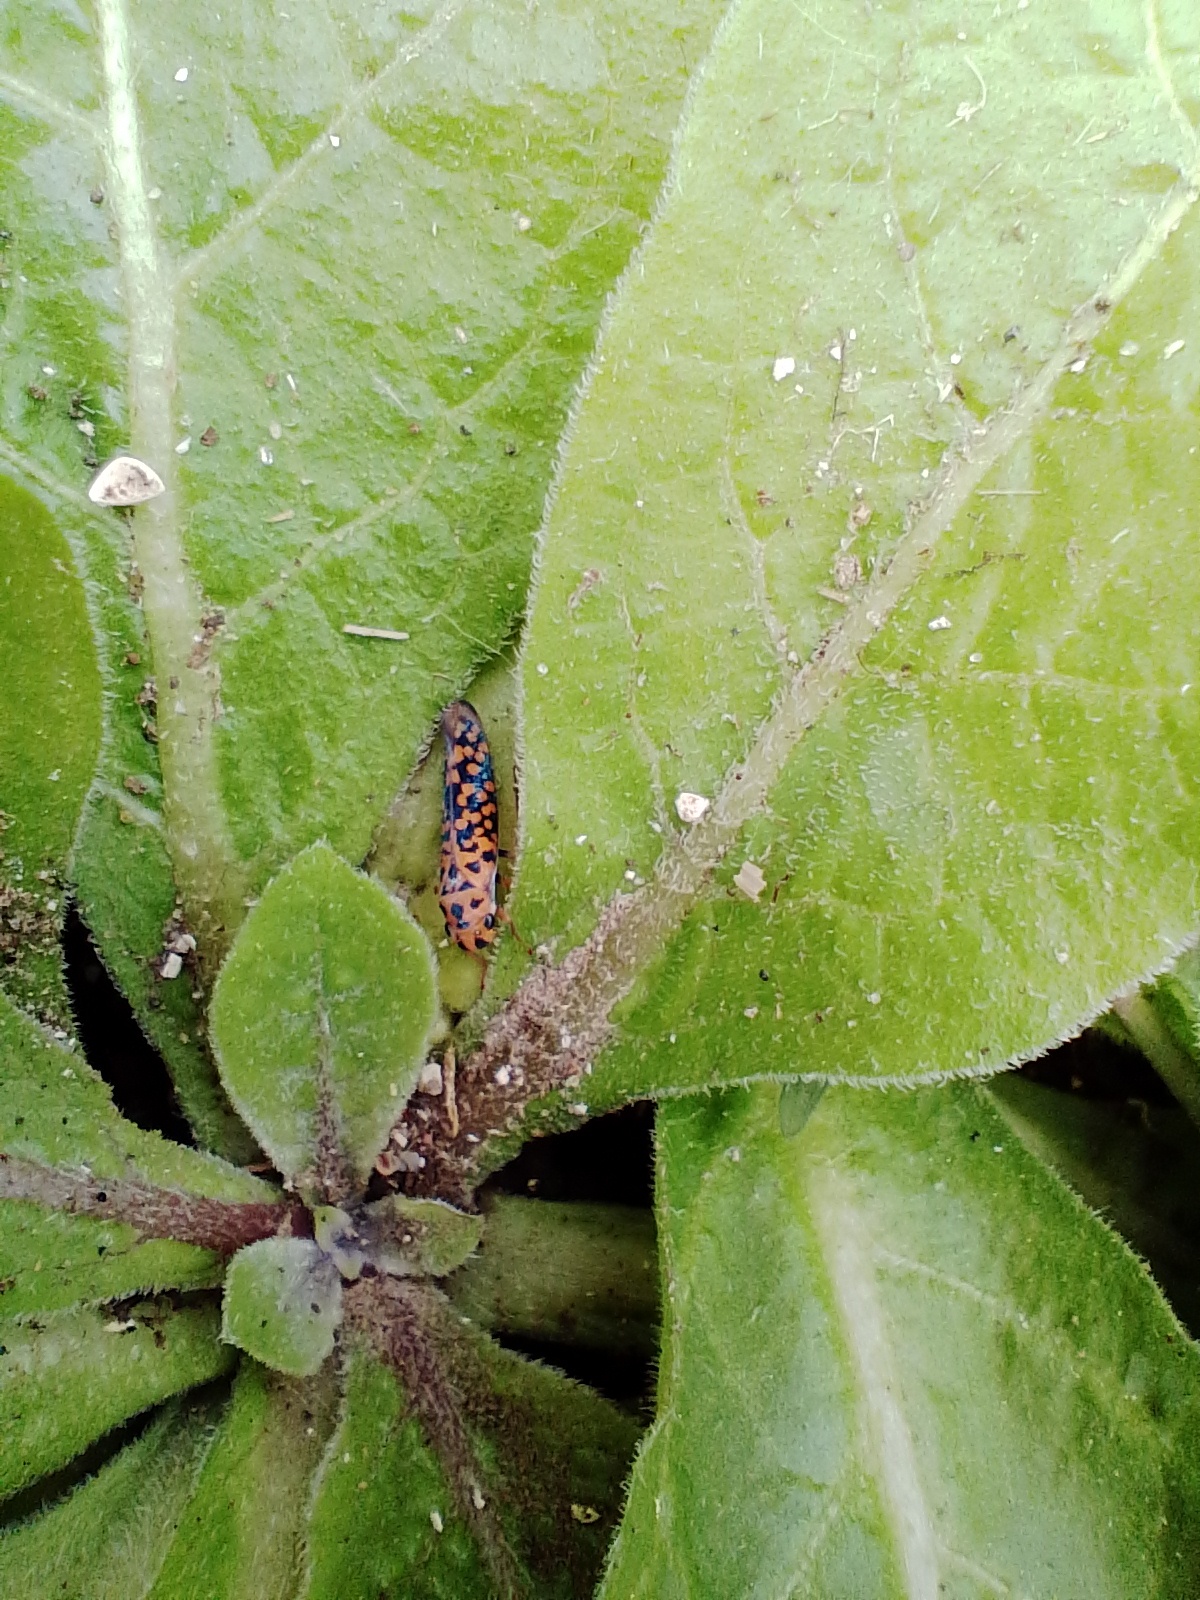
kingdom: Animalia
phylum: Arthropoda
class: Insecta
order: Hemiptera
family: Cicadellidae
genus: Pawiloma
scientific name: Pawiloma victima
